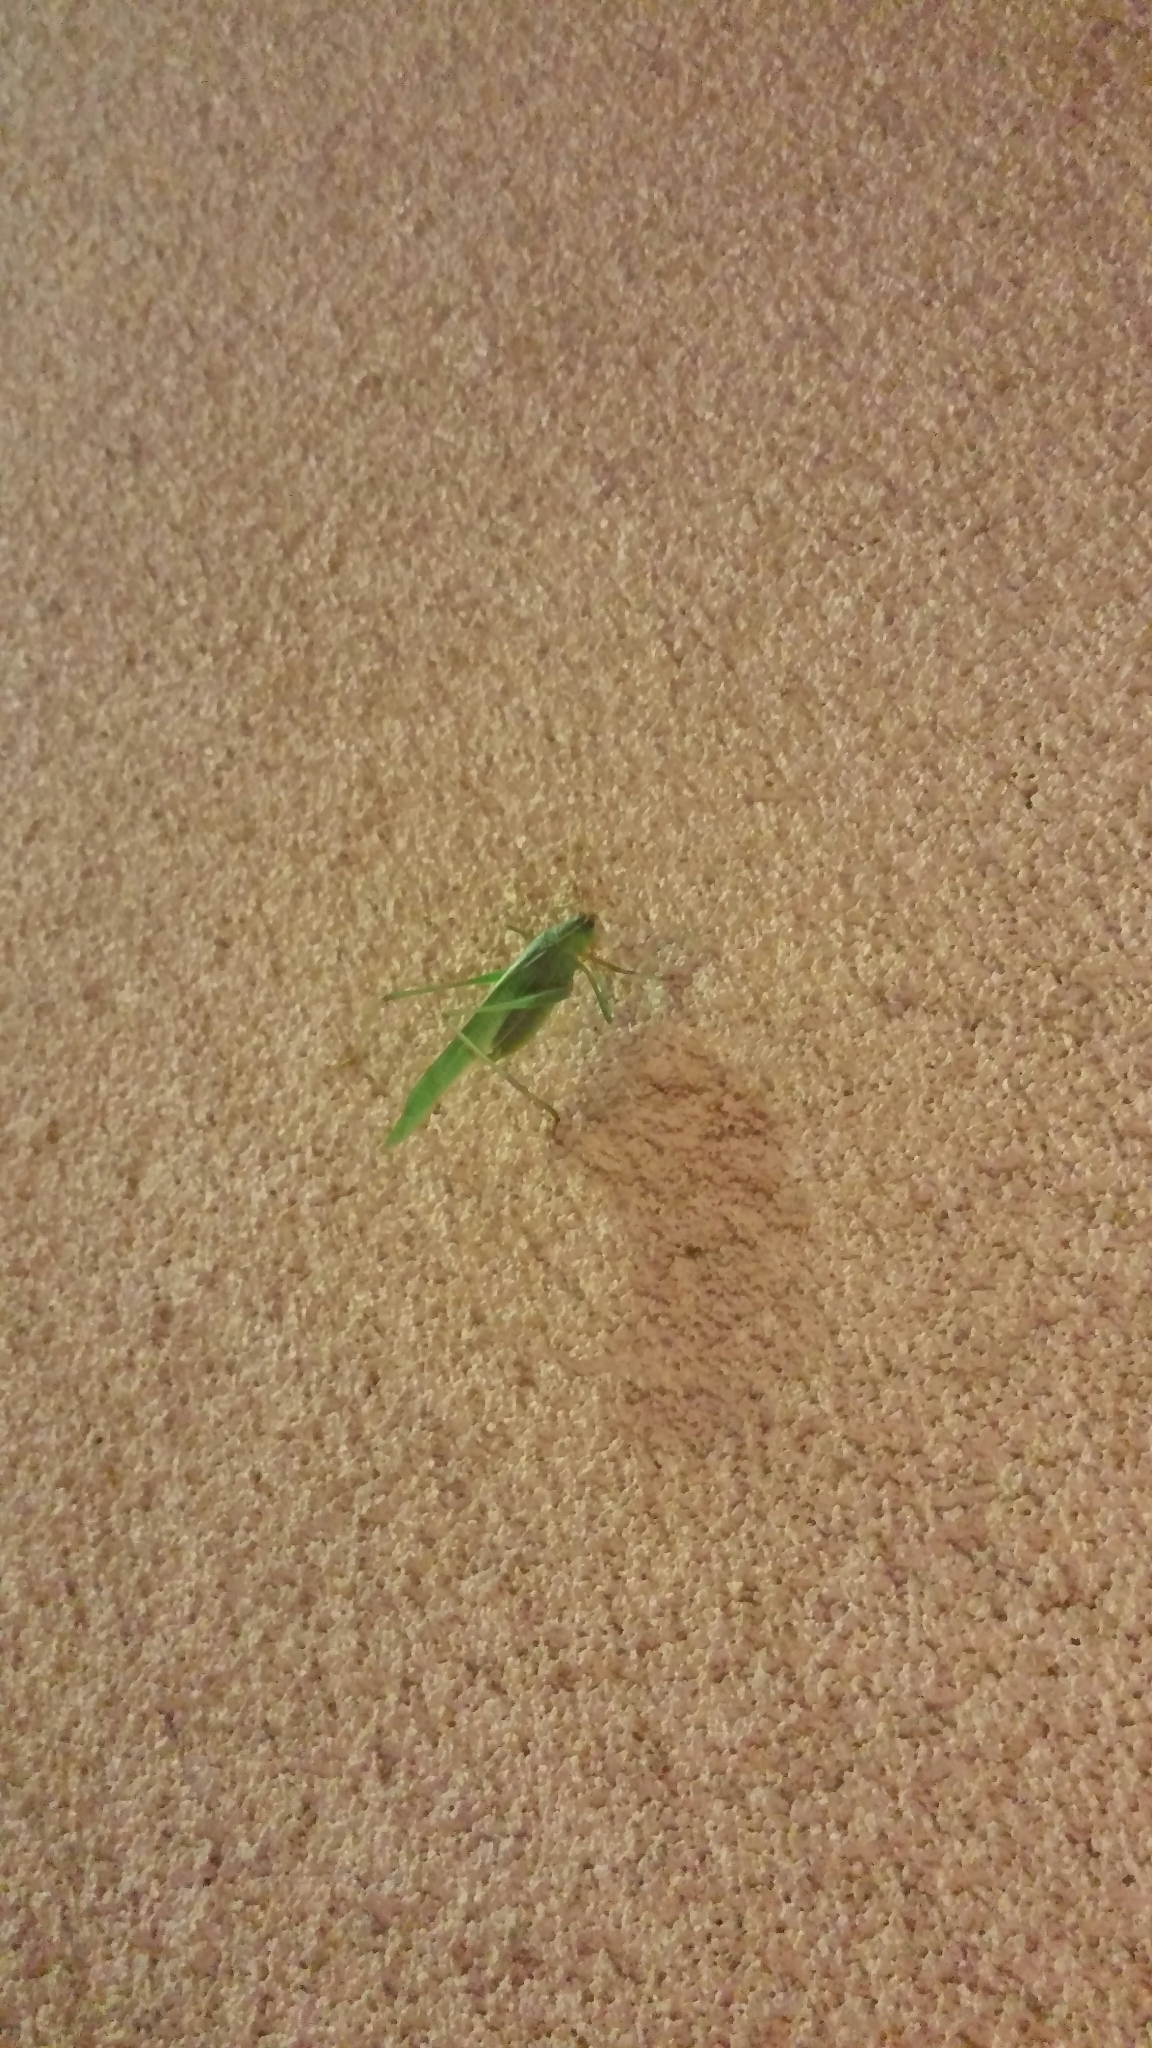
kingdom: Animalia
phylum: Arthropoda
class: Insecta
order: Orthoptera
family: Tettigoniidae
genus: Scudderia
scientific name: Scudderia
